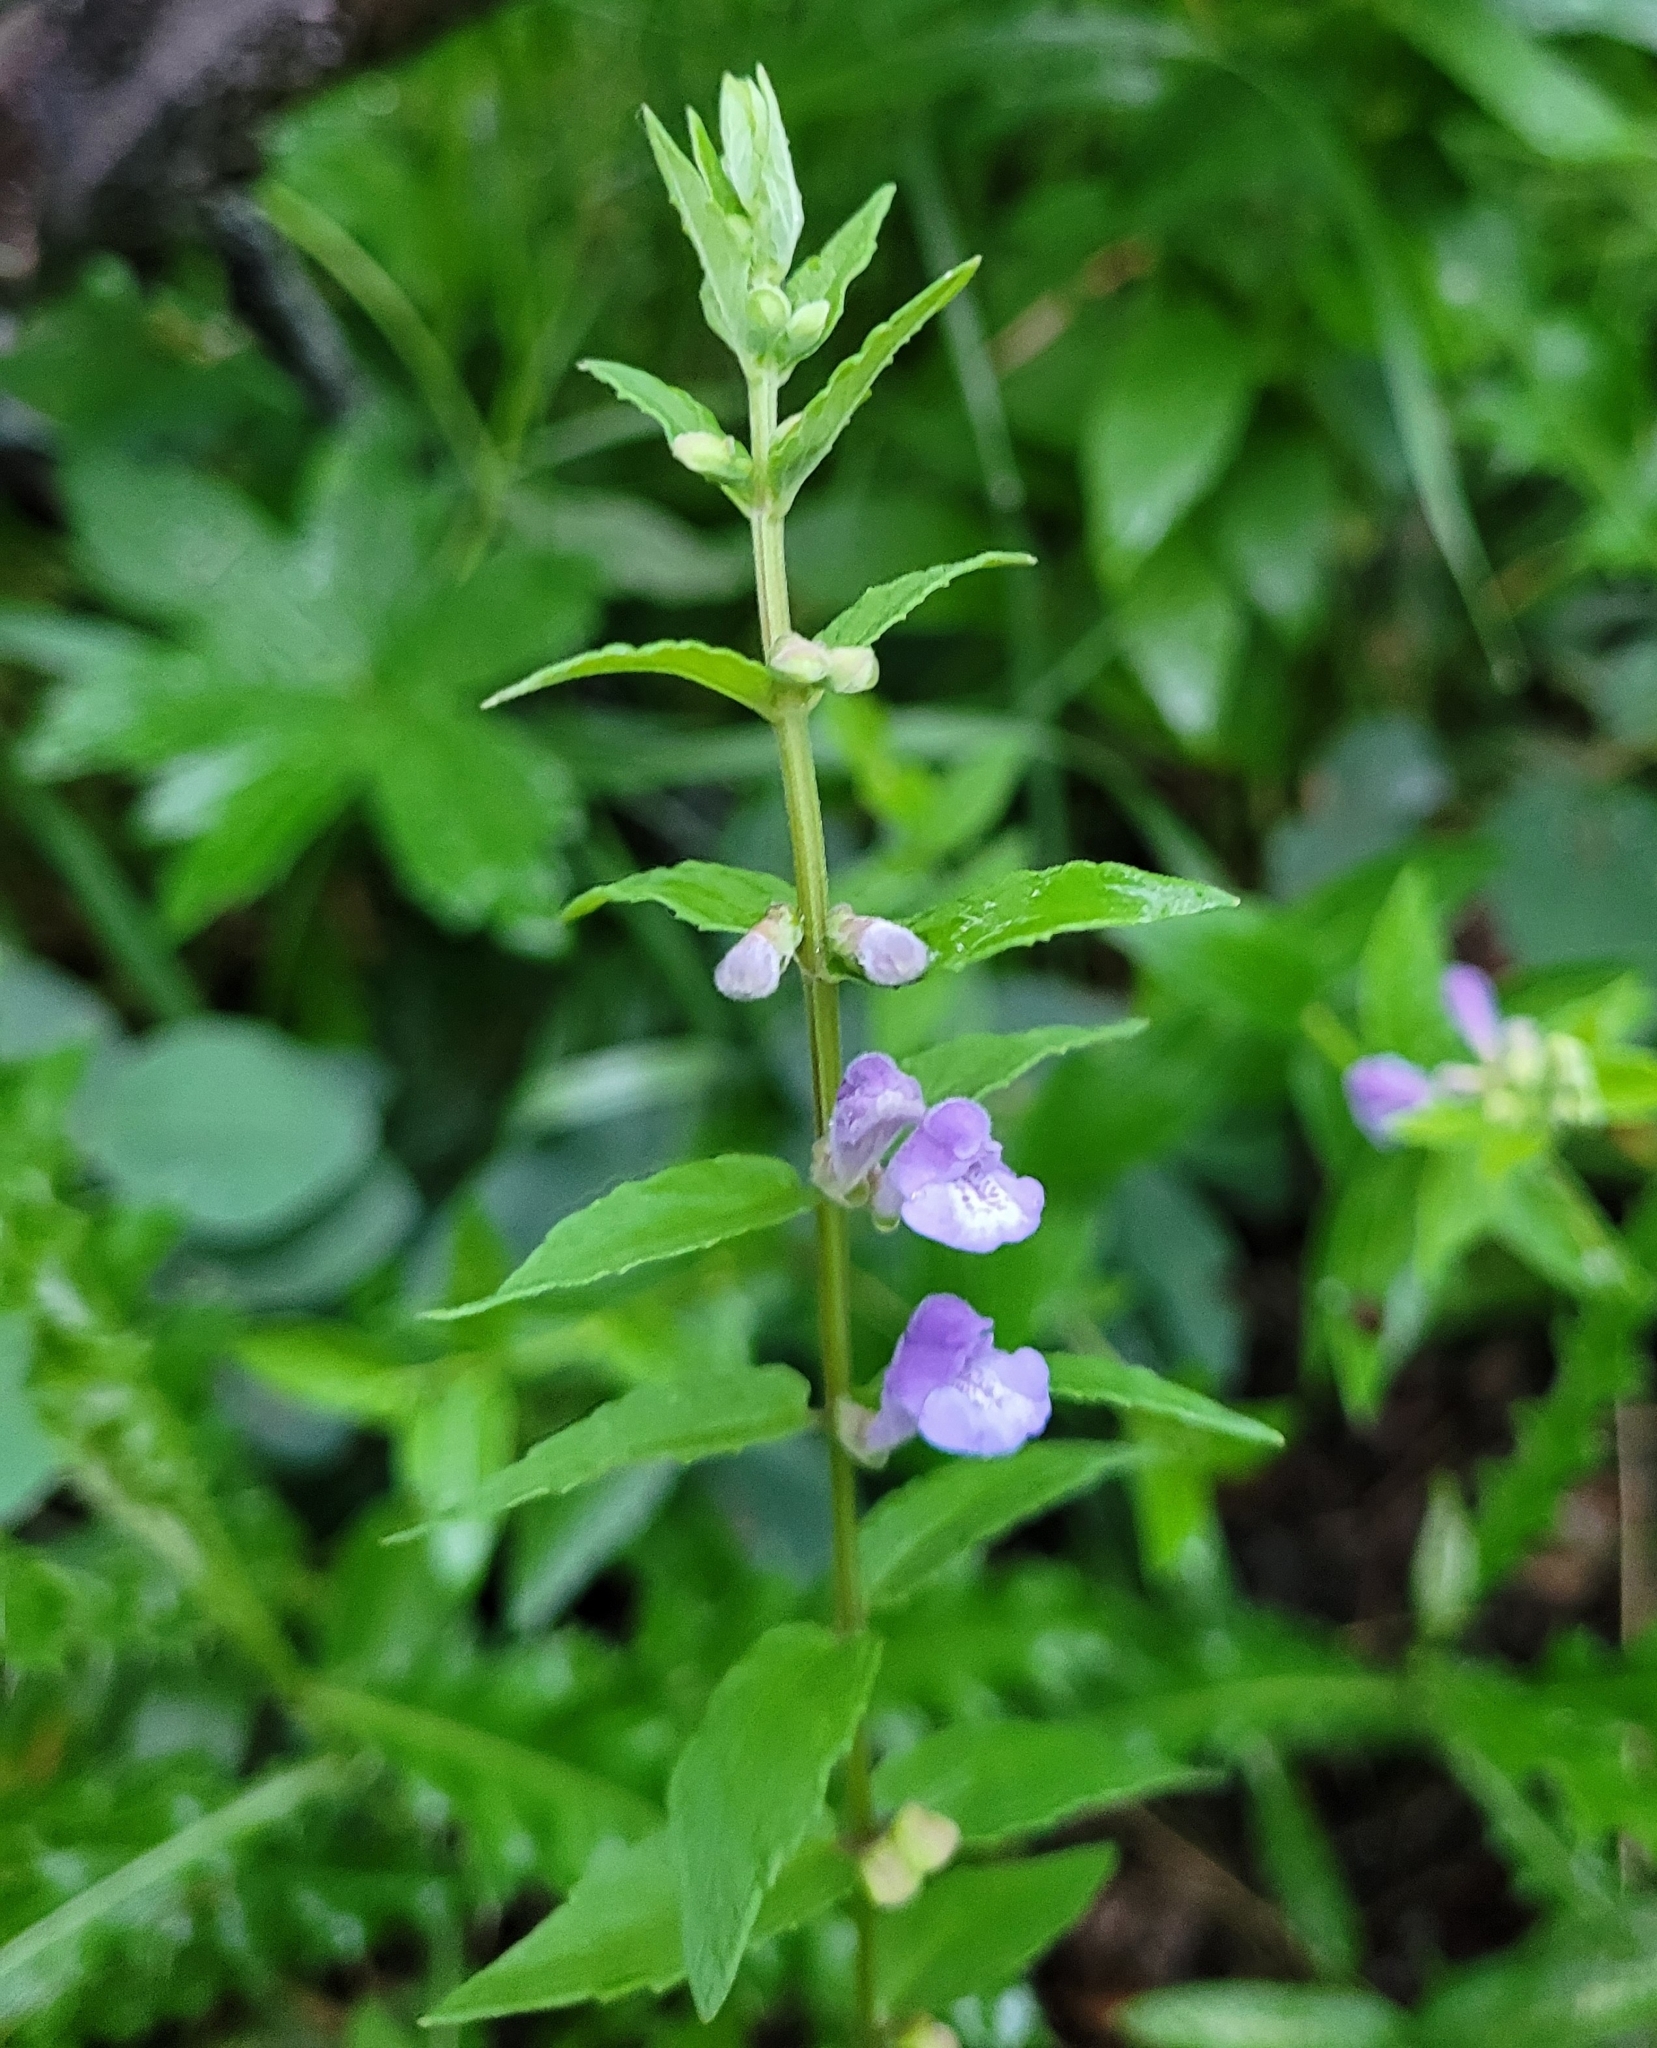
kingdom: Plantae
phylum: Tracheophyta
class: Magnoliopsida
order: Lamiales
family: Lamiaceae
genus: Scutellaria
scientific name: Scutellaria galericulata
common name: Skullcap
